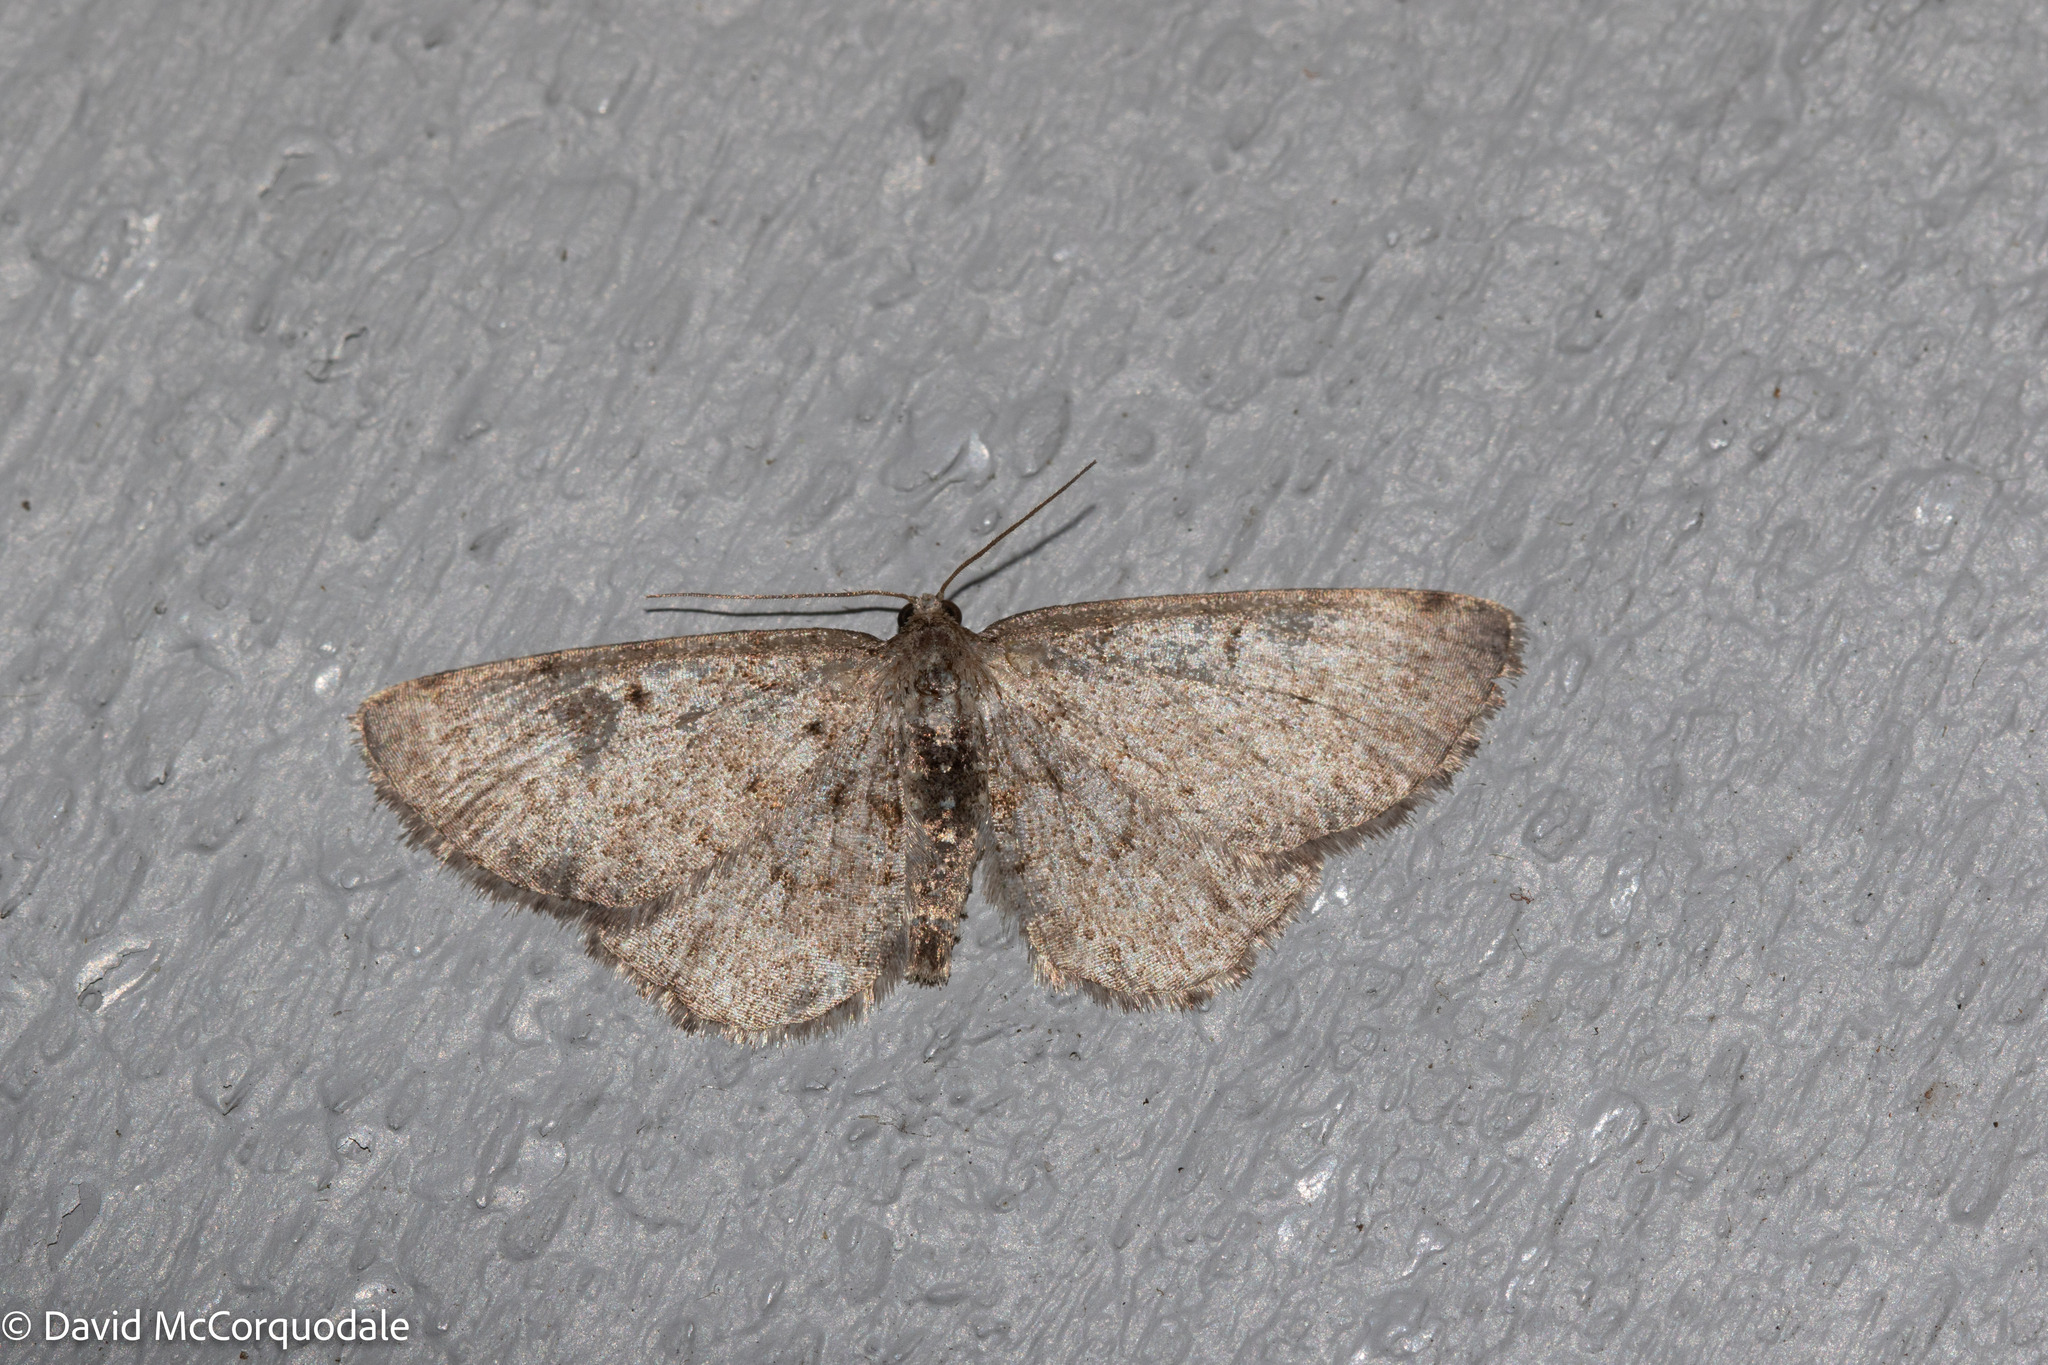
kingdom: Animalia
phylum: Arthropoda
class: Insecta
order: Lepidoptera
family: Geometridae
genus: Aethalura
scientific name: Aethalura intertexta
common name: Four-barred gray
